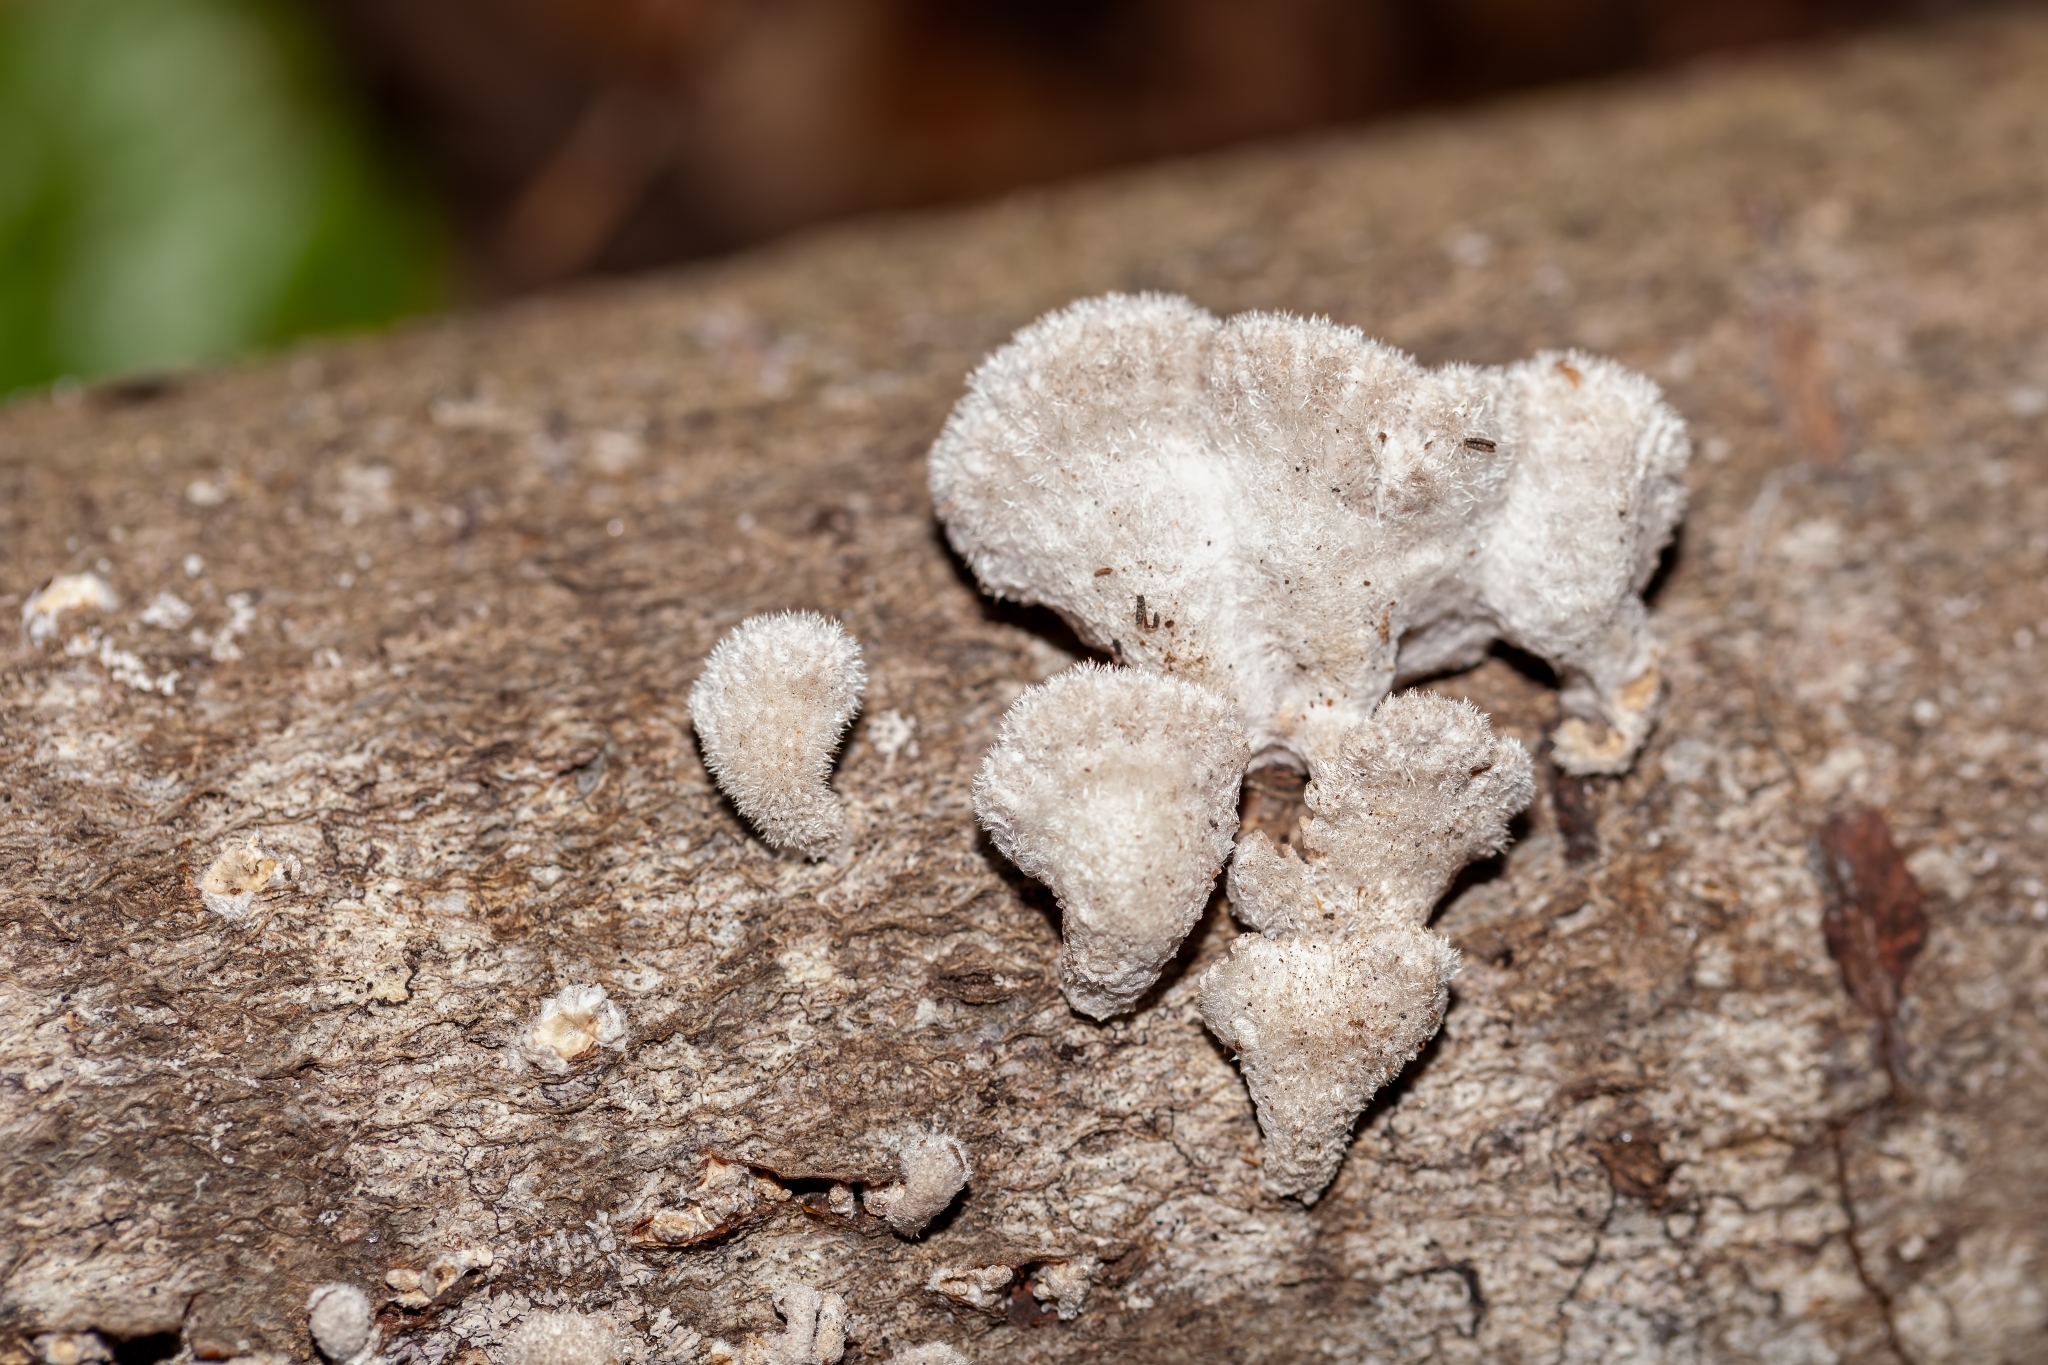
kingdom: Fungi
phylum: Basidiomycota
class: Agaricomycetes
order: Agaricales
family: Schizophyllaceae
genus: Schizophyllum
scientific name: Schizophyllum commune
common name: Common porecrust
